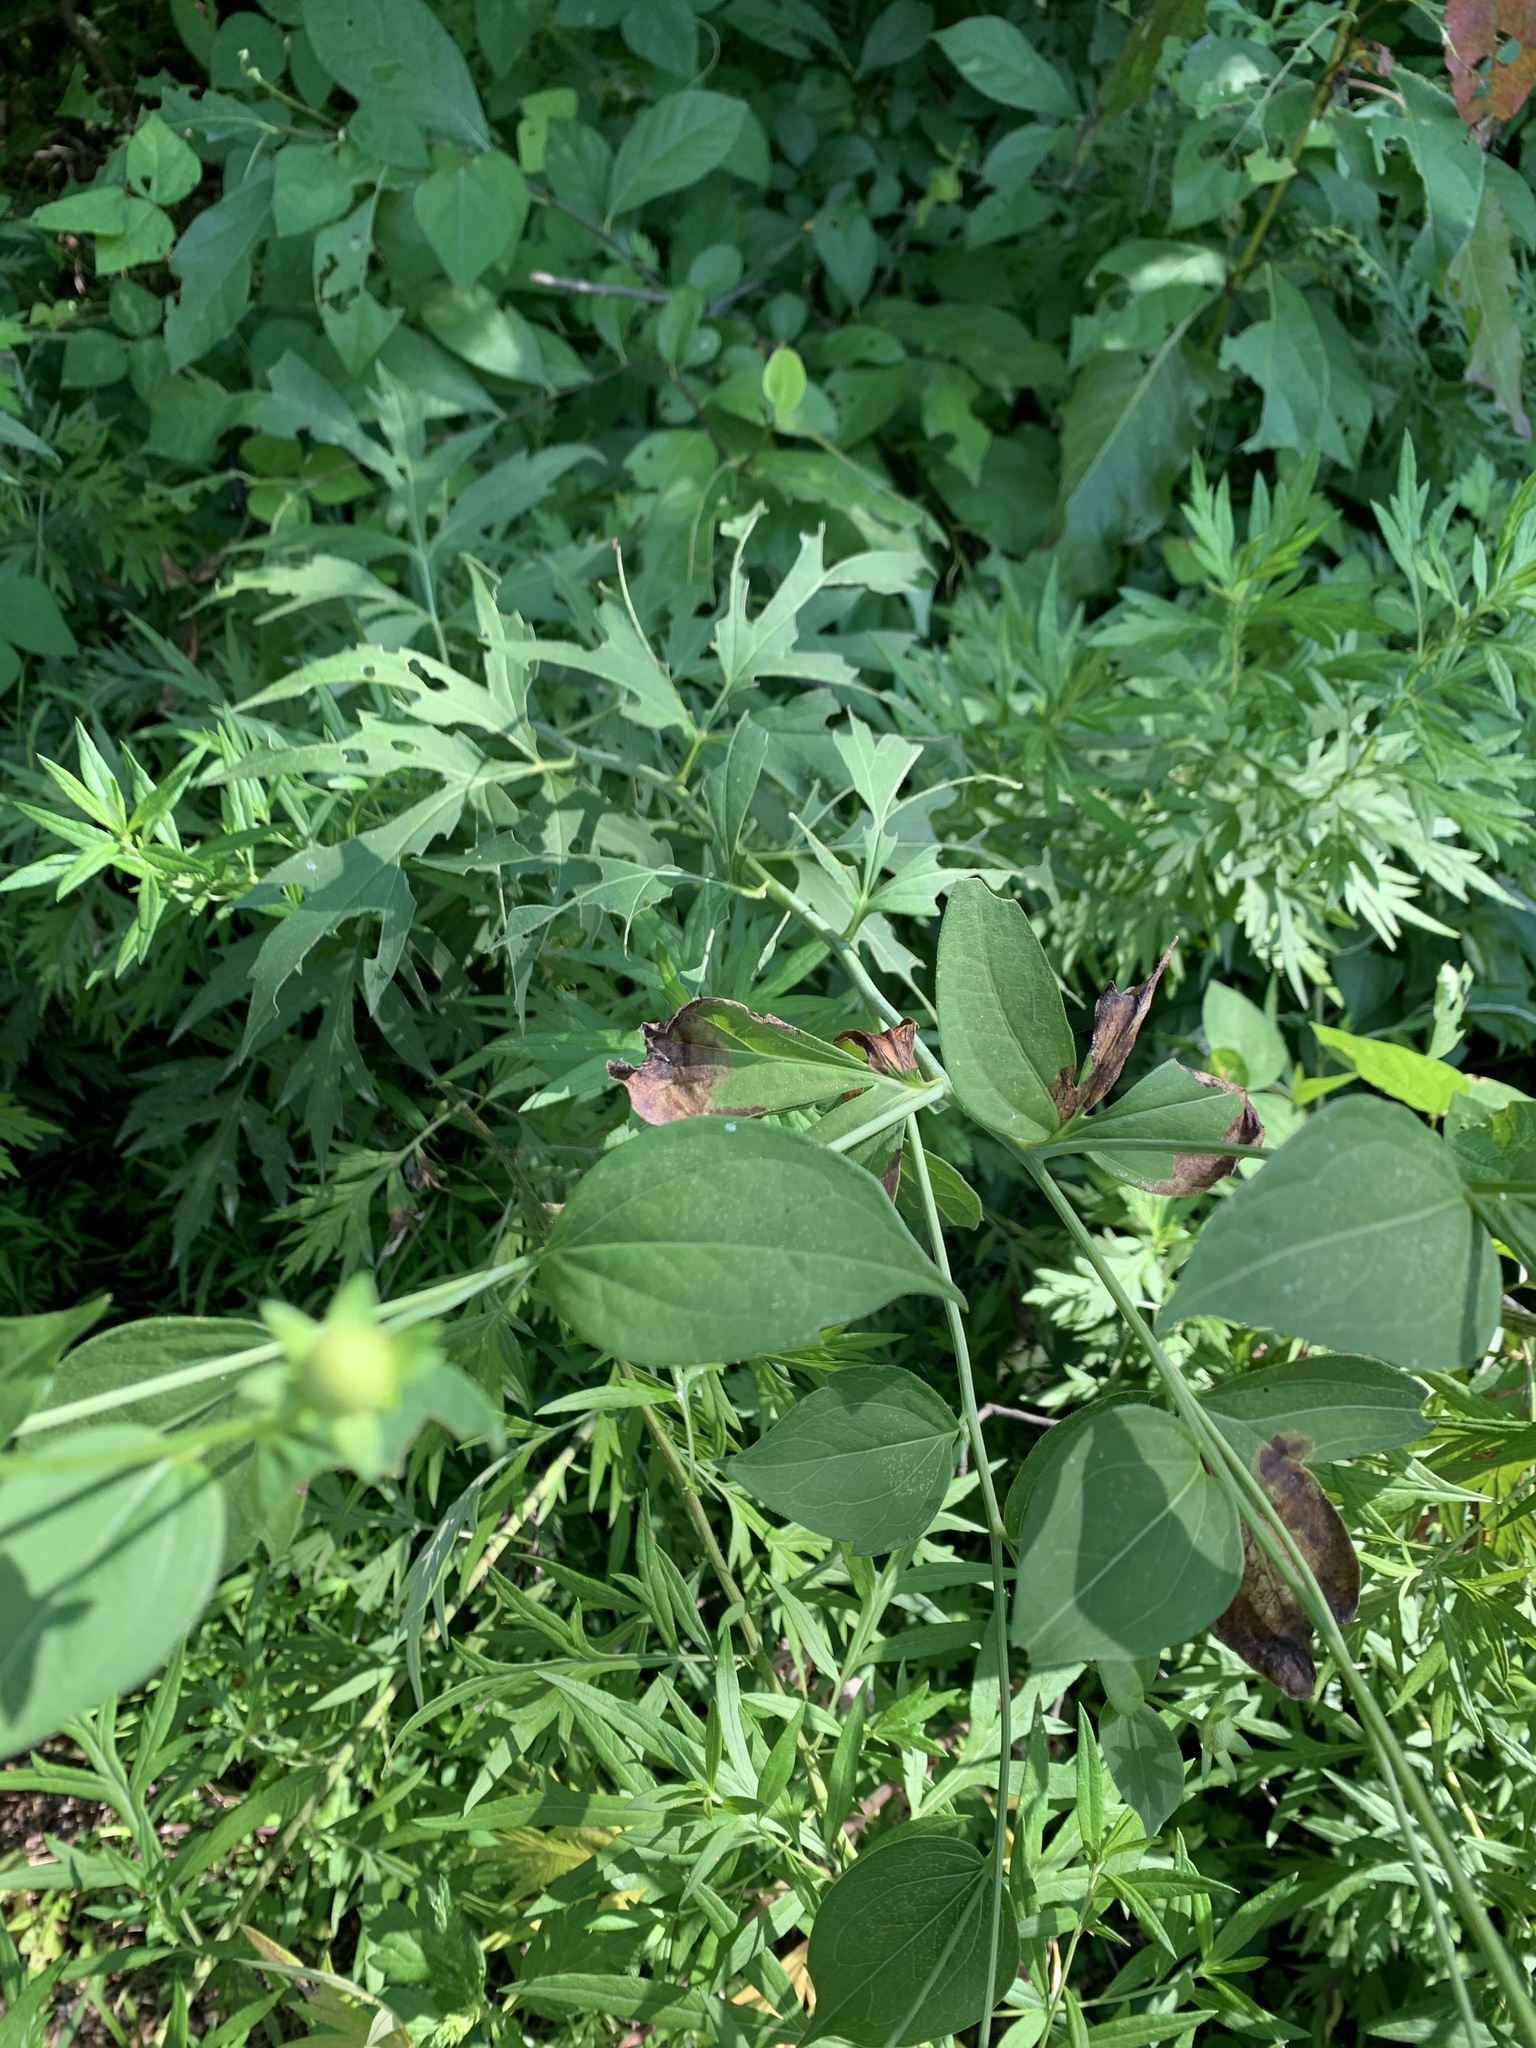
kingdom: Plantae
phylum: Tracheophyta
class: Magnoliopsida
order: Asterales
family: Asteraceae
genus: Rudbeckia
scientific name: Rudbeckia laciniata
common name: Coneflower
